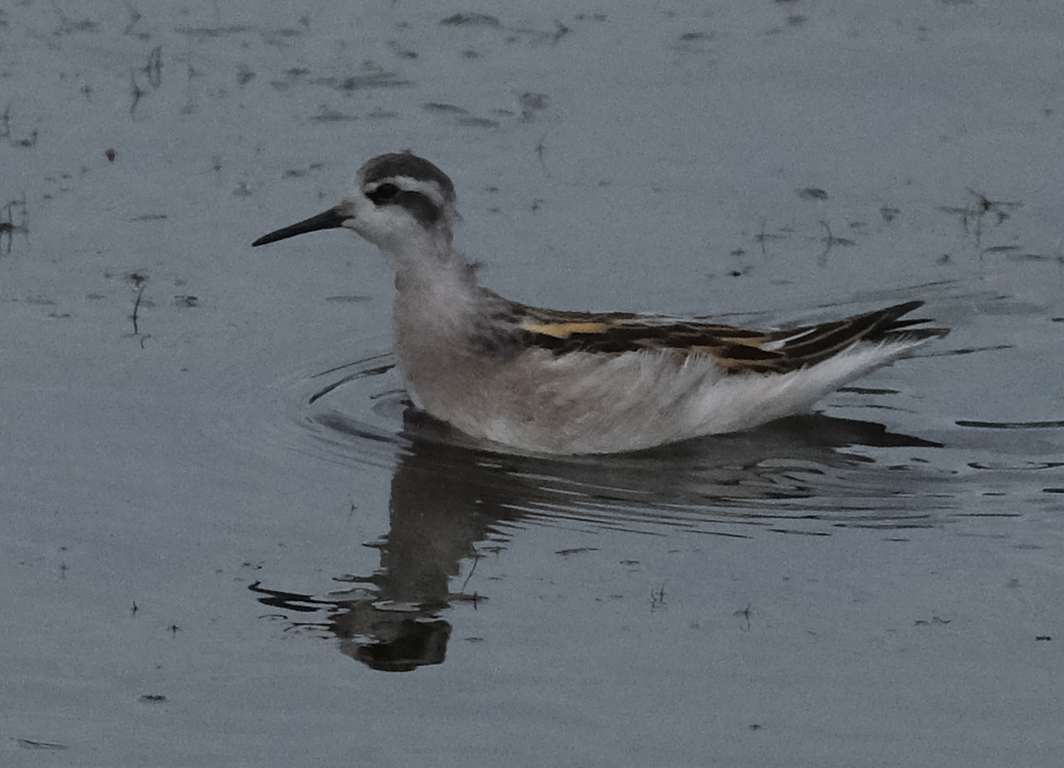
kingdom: Animalia
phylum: Chordata
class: Aves
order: Charadriiformes
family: Scolopacidae
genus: Phalaropus
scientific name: Phalaropus lobatus
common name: Red-necked phalarope
